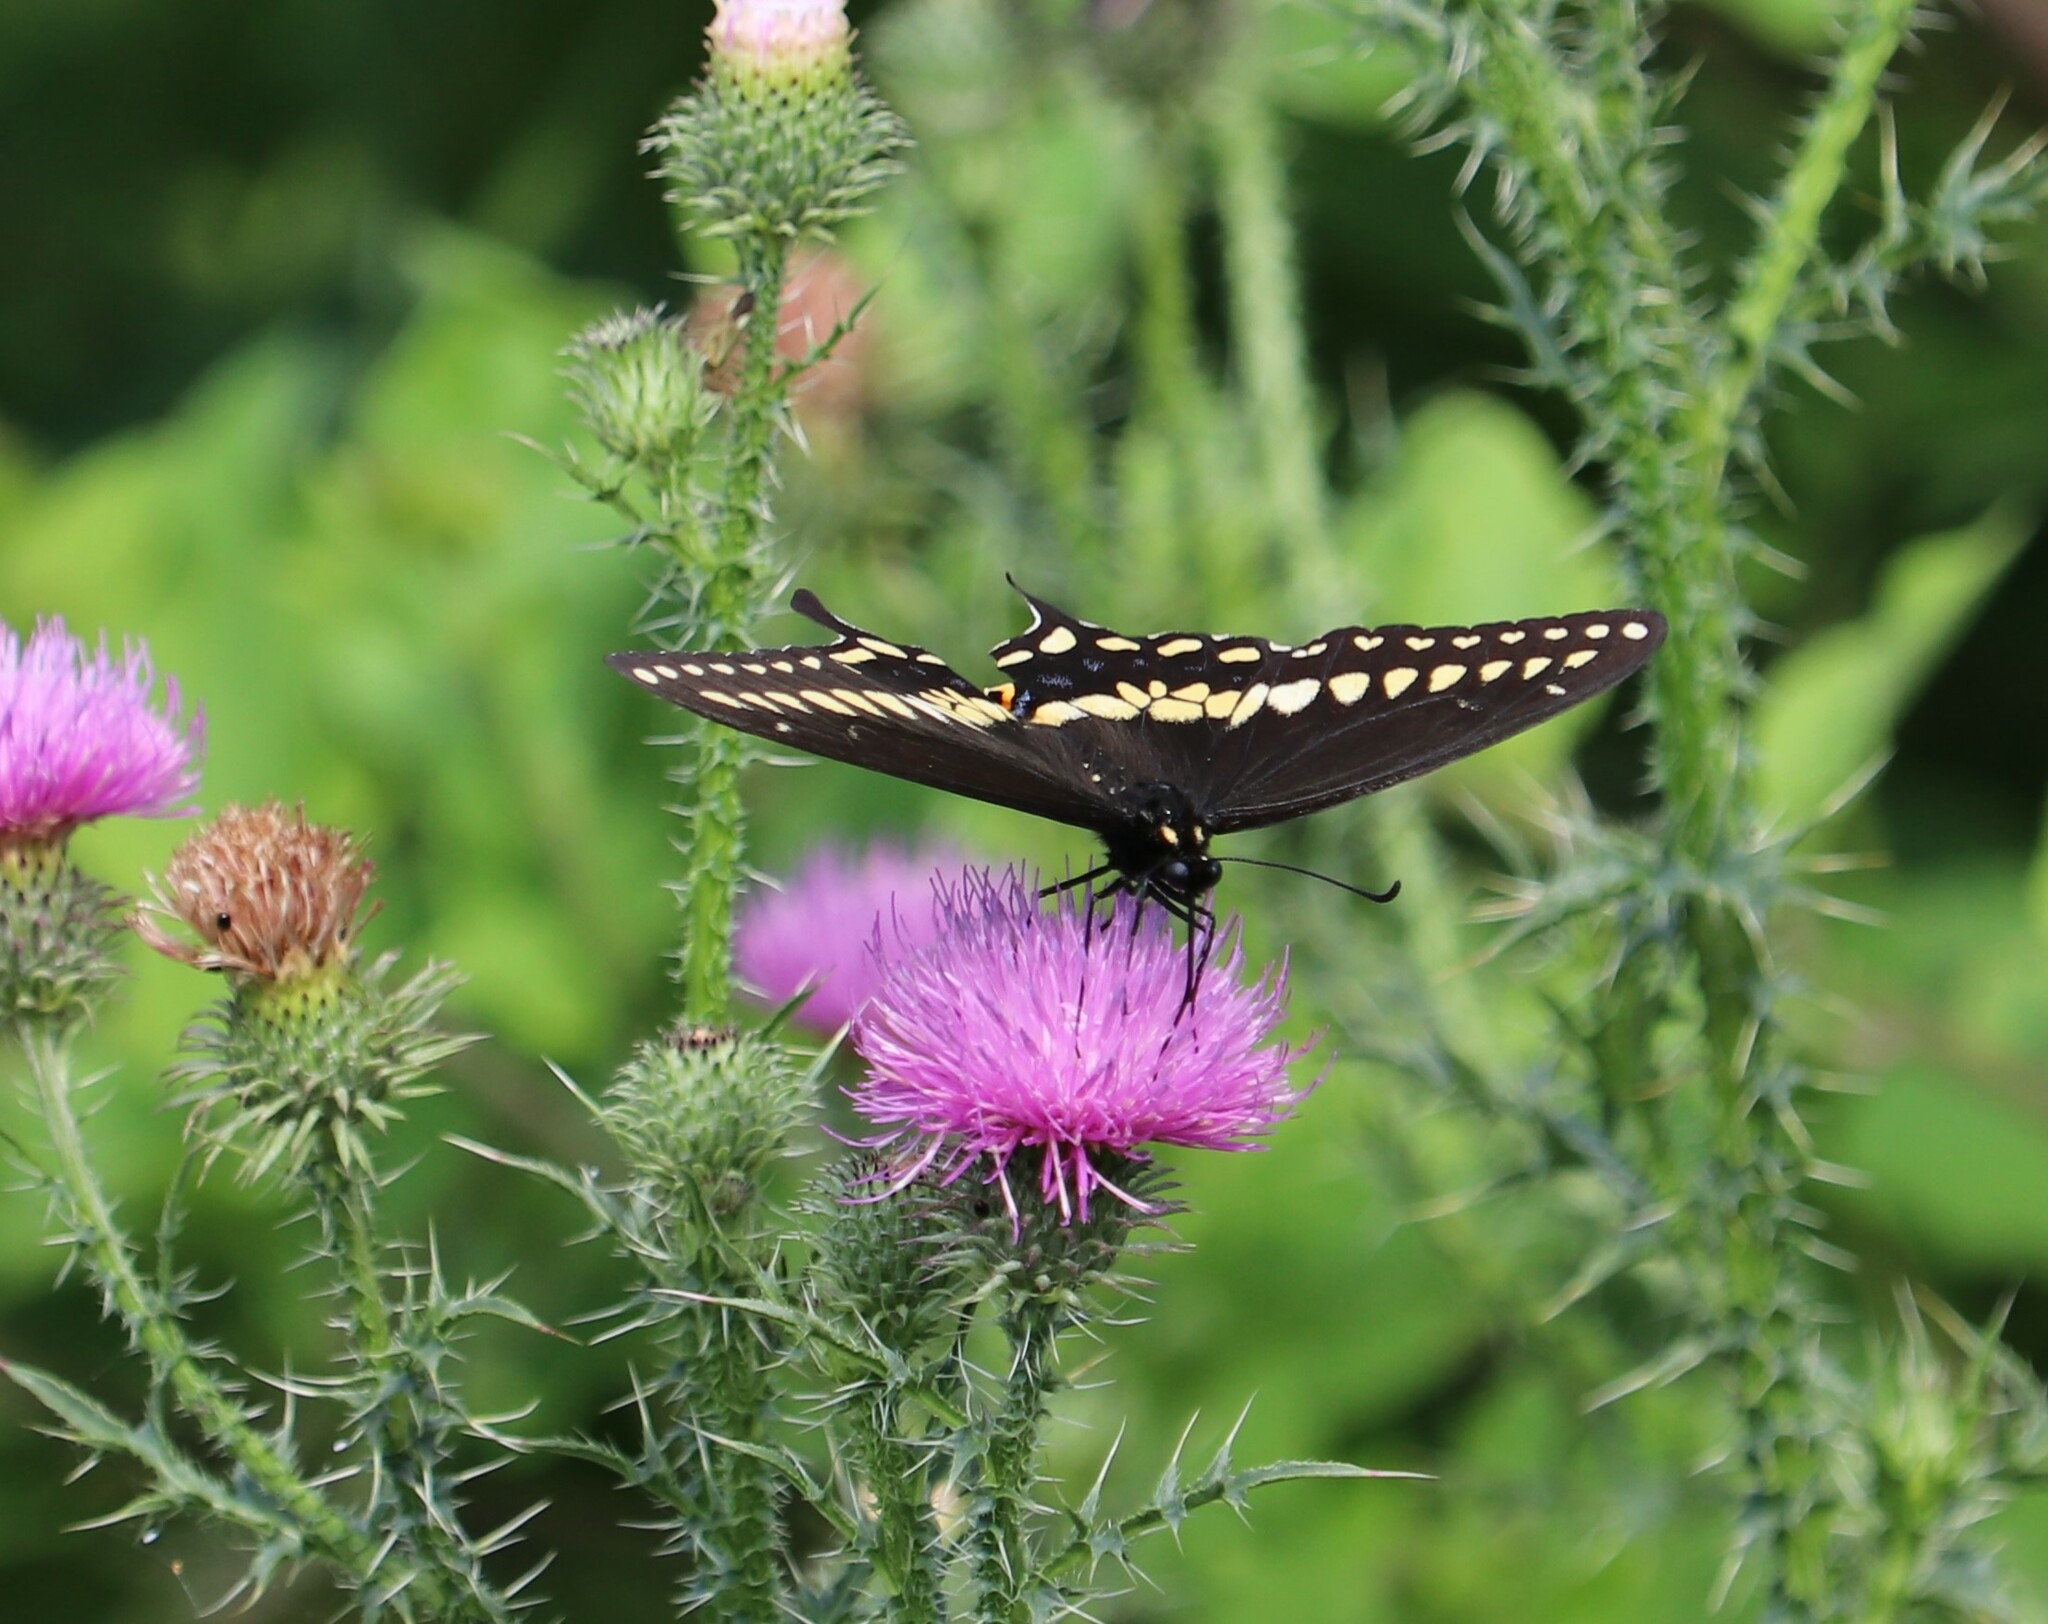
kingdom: Animalia
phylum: Arthropoda
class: Insecta
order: Lepidoptera
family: Papilionidae
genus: Papilio
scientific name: Papilio polyxenes
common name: Black swallowtail
